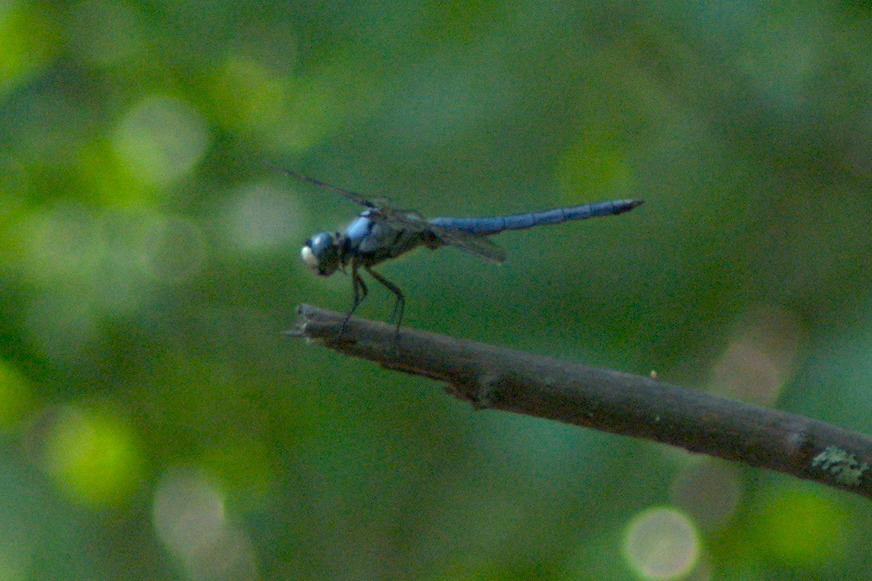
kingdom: Animalia
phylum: Arthropoda
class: Insecta
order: Odonata
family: Libellulidae
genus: Libellula
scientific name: Libellula vibrans
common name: Great blue skimmer
